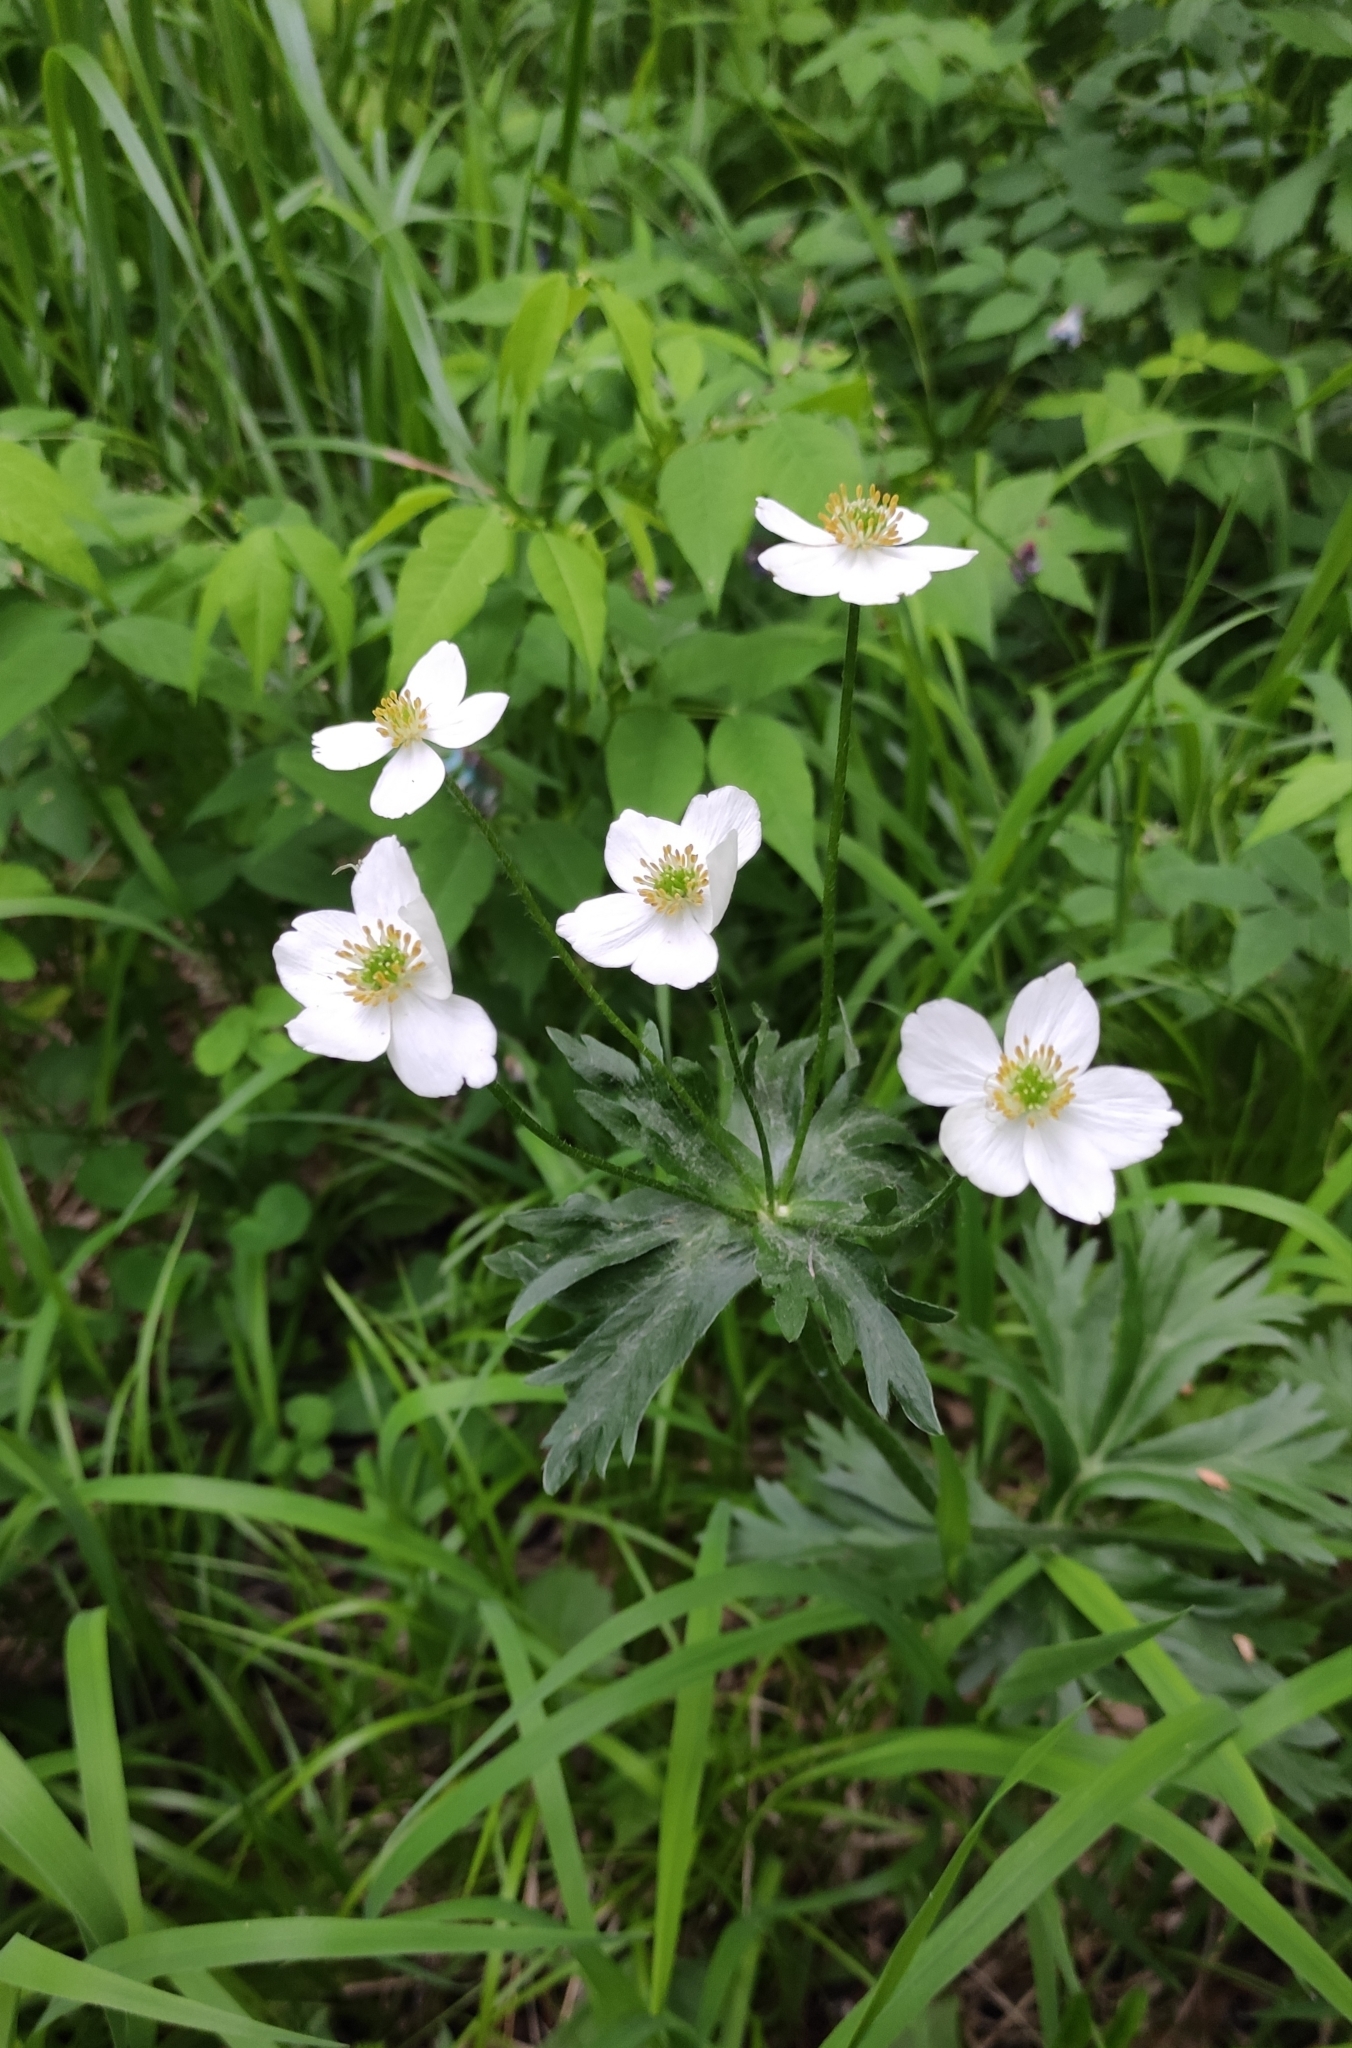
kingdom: Plantae
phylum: Tracheophyta
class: Magnoliopsida
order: Ranunculales
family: Ranunculaceae
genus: Anemonastrum
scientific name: Anemonastrum narcissiflorum
